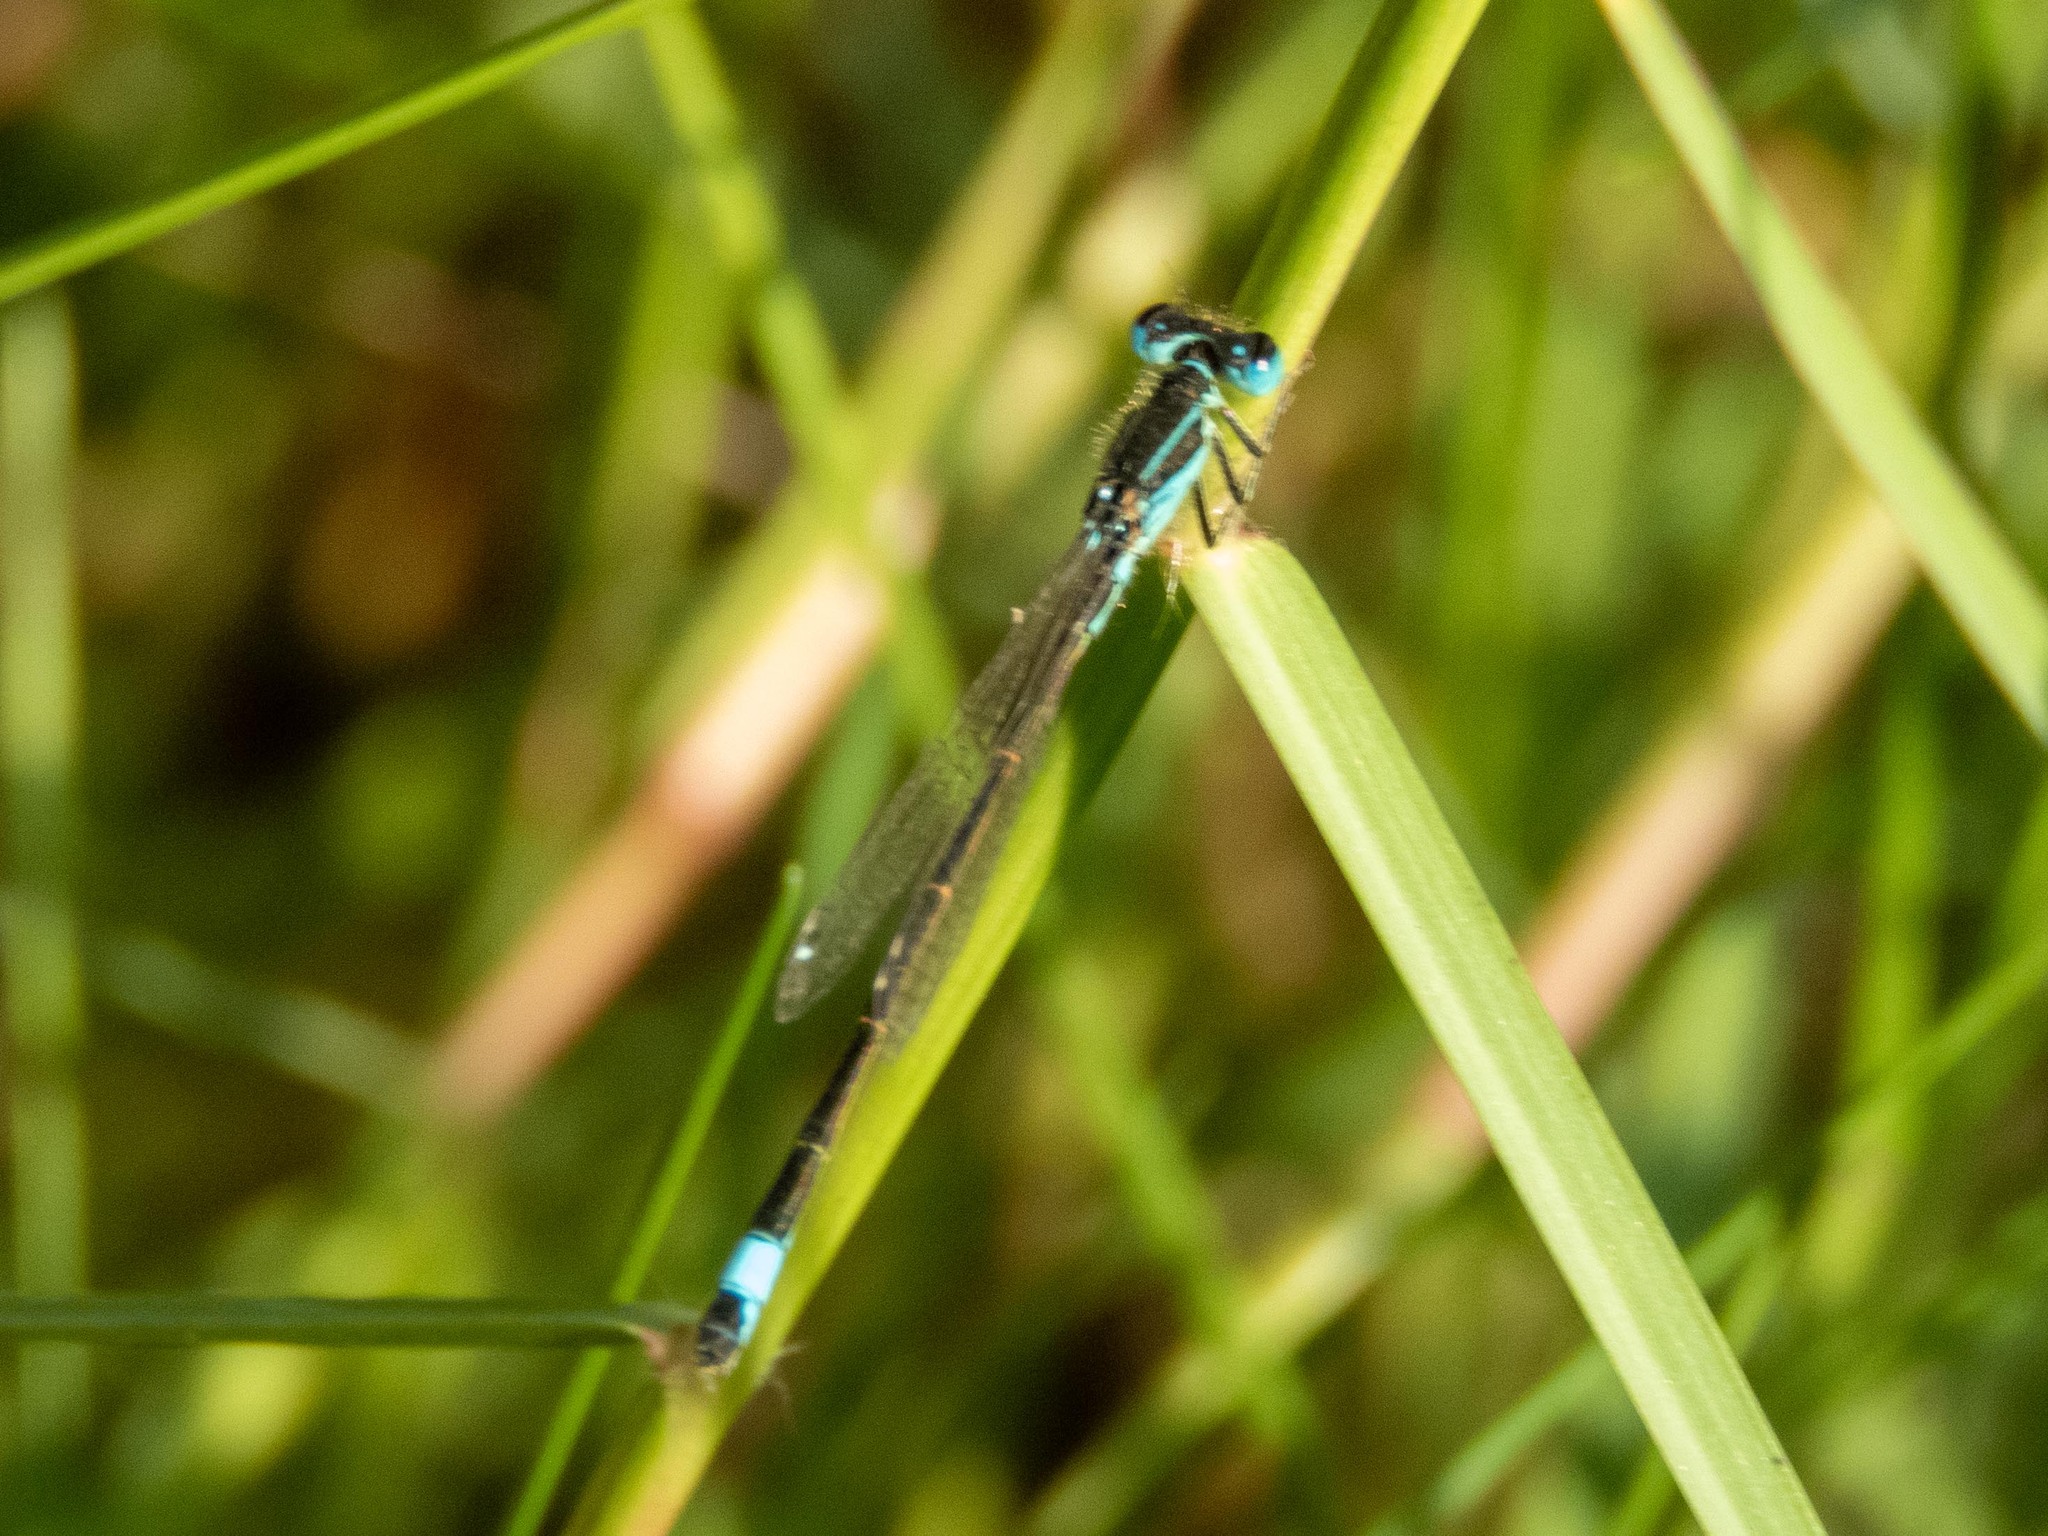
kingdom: Animalia
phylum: Arthropoda
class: Insecta
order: Odonata
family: Coenagrionidae
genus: Ischnura
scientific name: Ischnura graellsii
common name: Iberian bluetail
